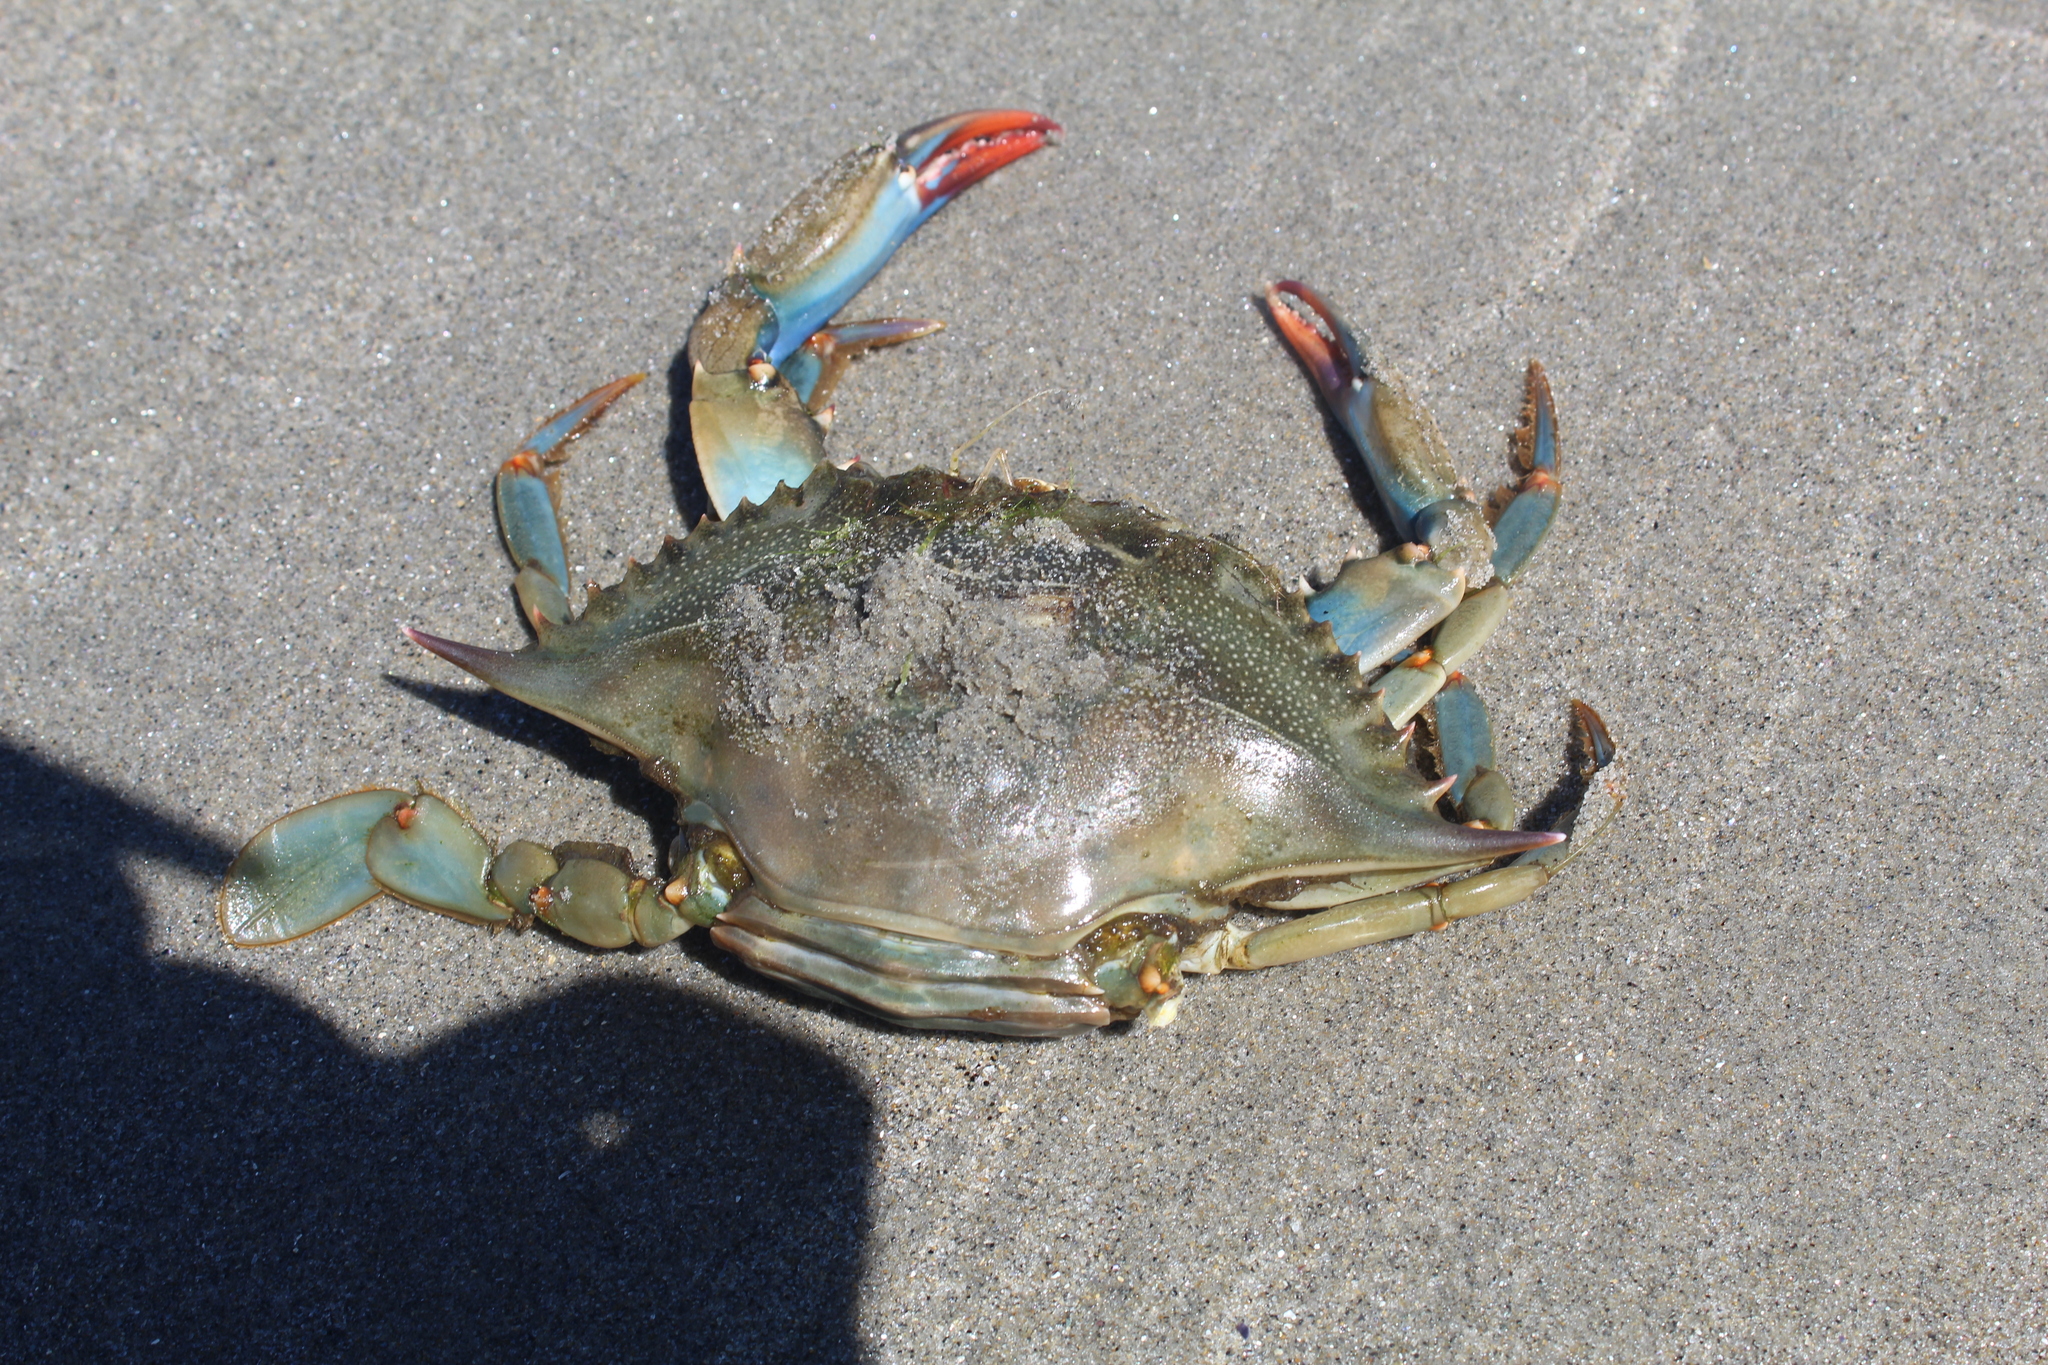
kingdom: Animalia
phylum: Arthropoda
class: Malacostraca
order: Decapoda
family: Portunidae
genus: Callinectes
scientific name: Callinectes sapidus
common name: Blue crab
